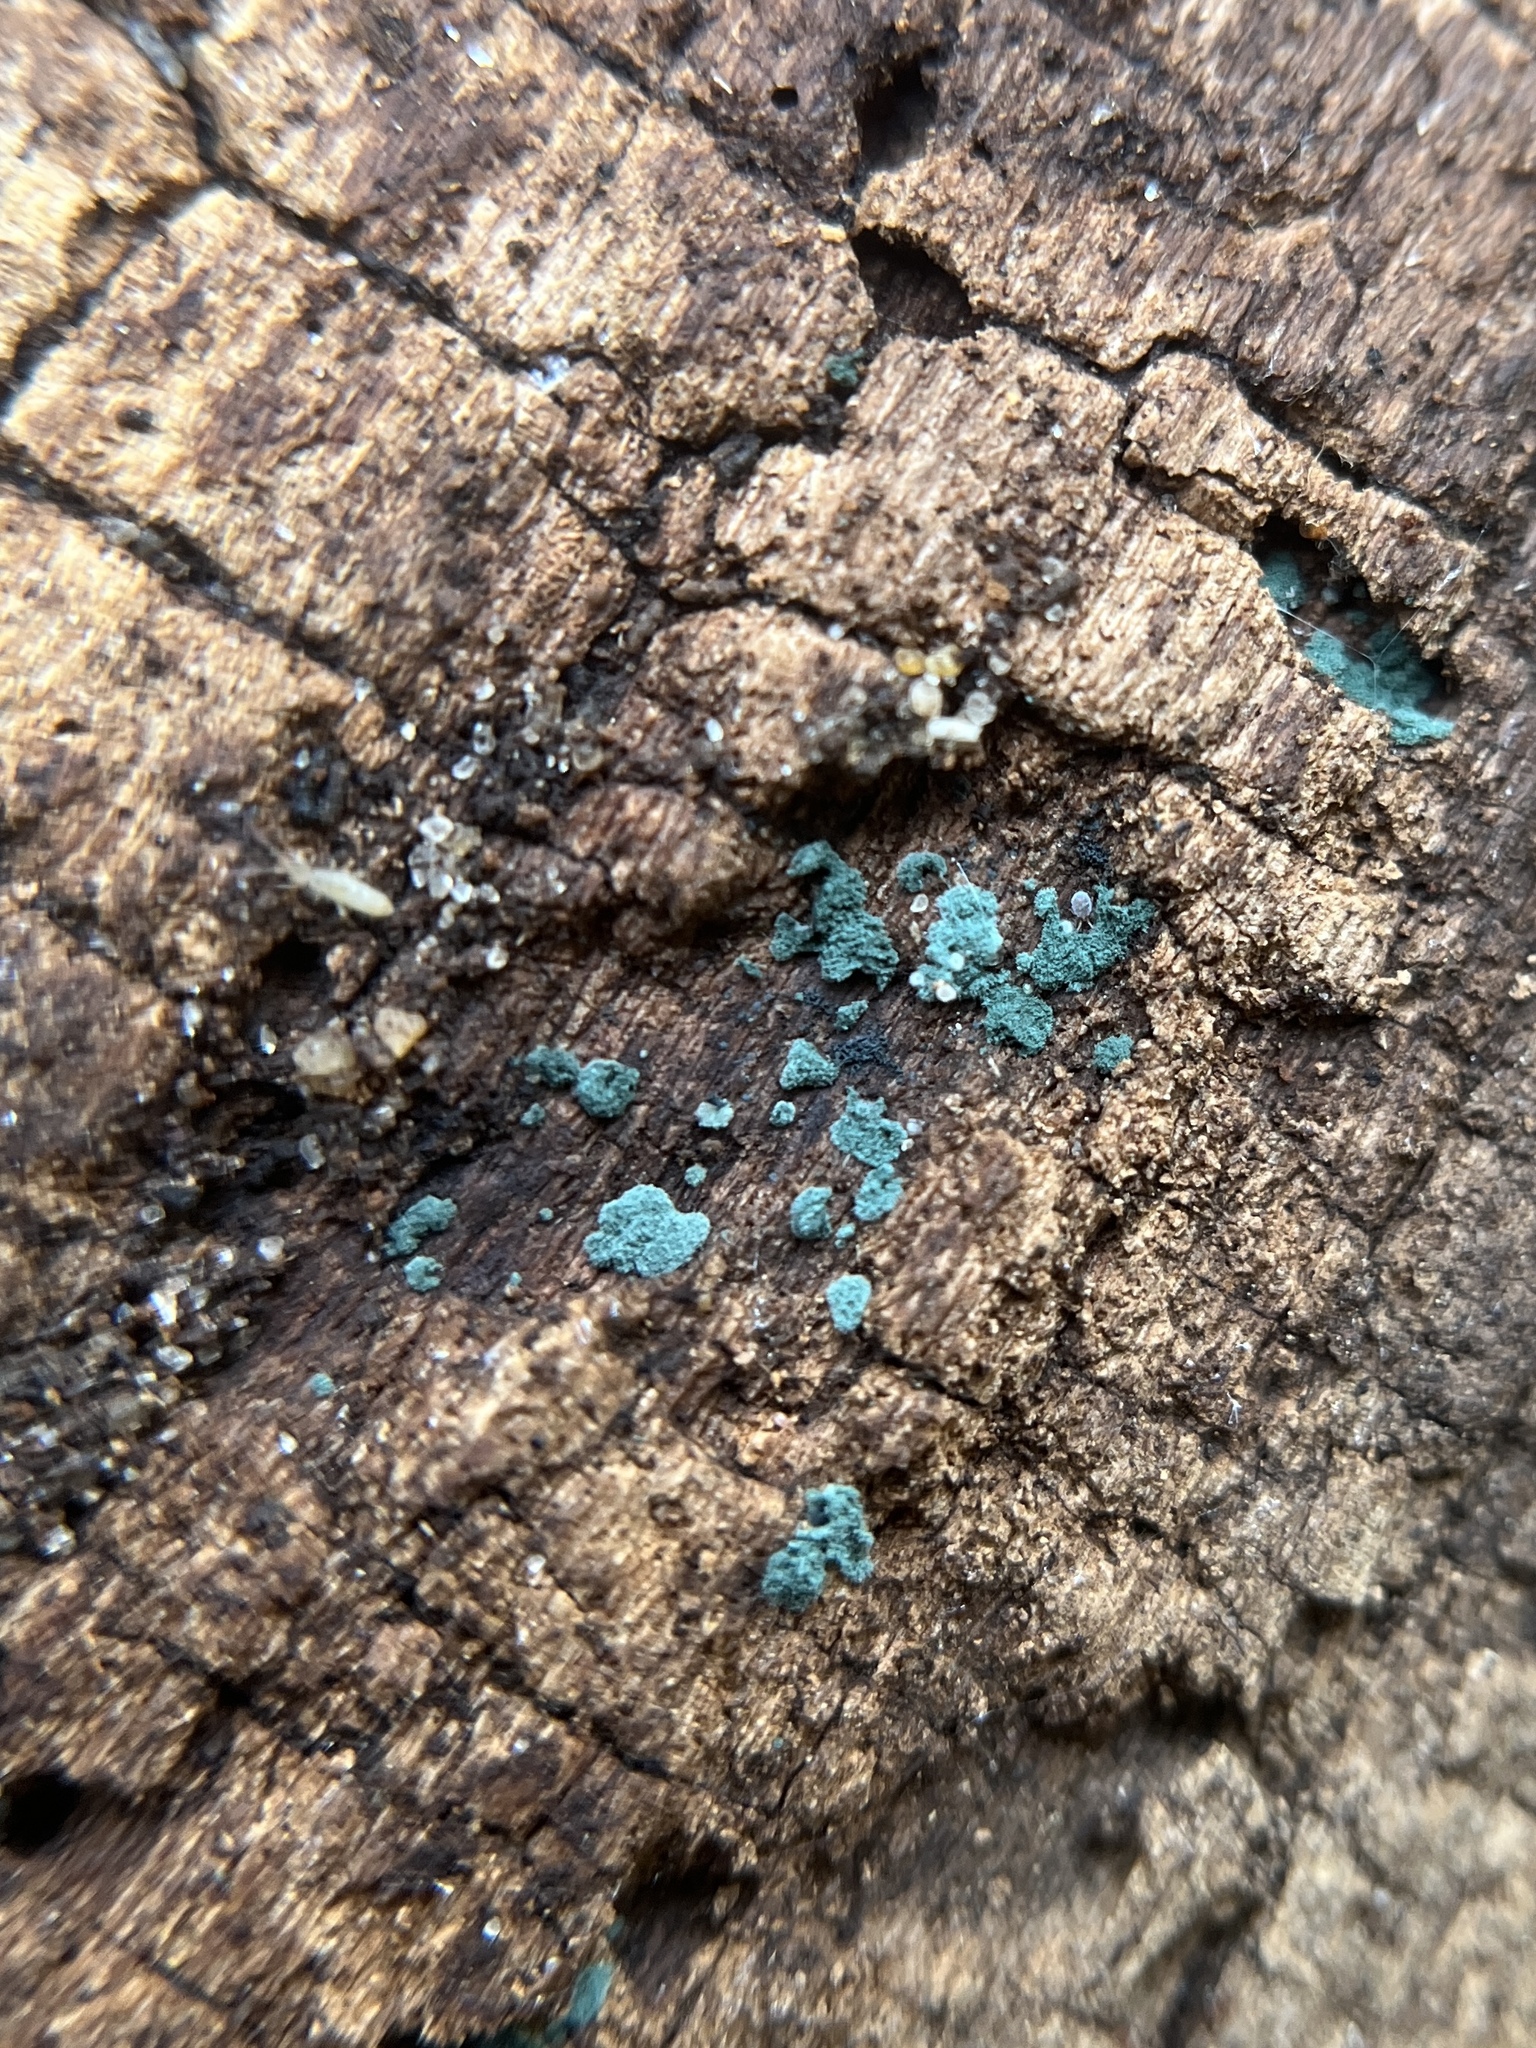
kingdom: Fungi
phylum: Ascomycota
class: Sordariomycetes
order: Hypocreales
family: Hypocreaceae
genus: Trichoderma
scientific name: Trichoderma viride
